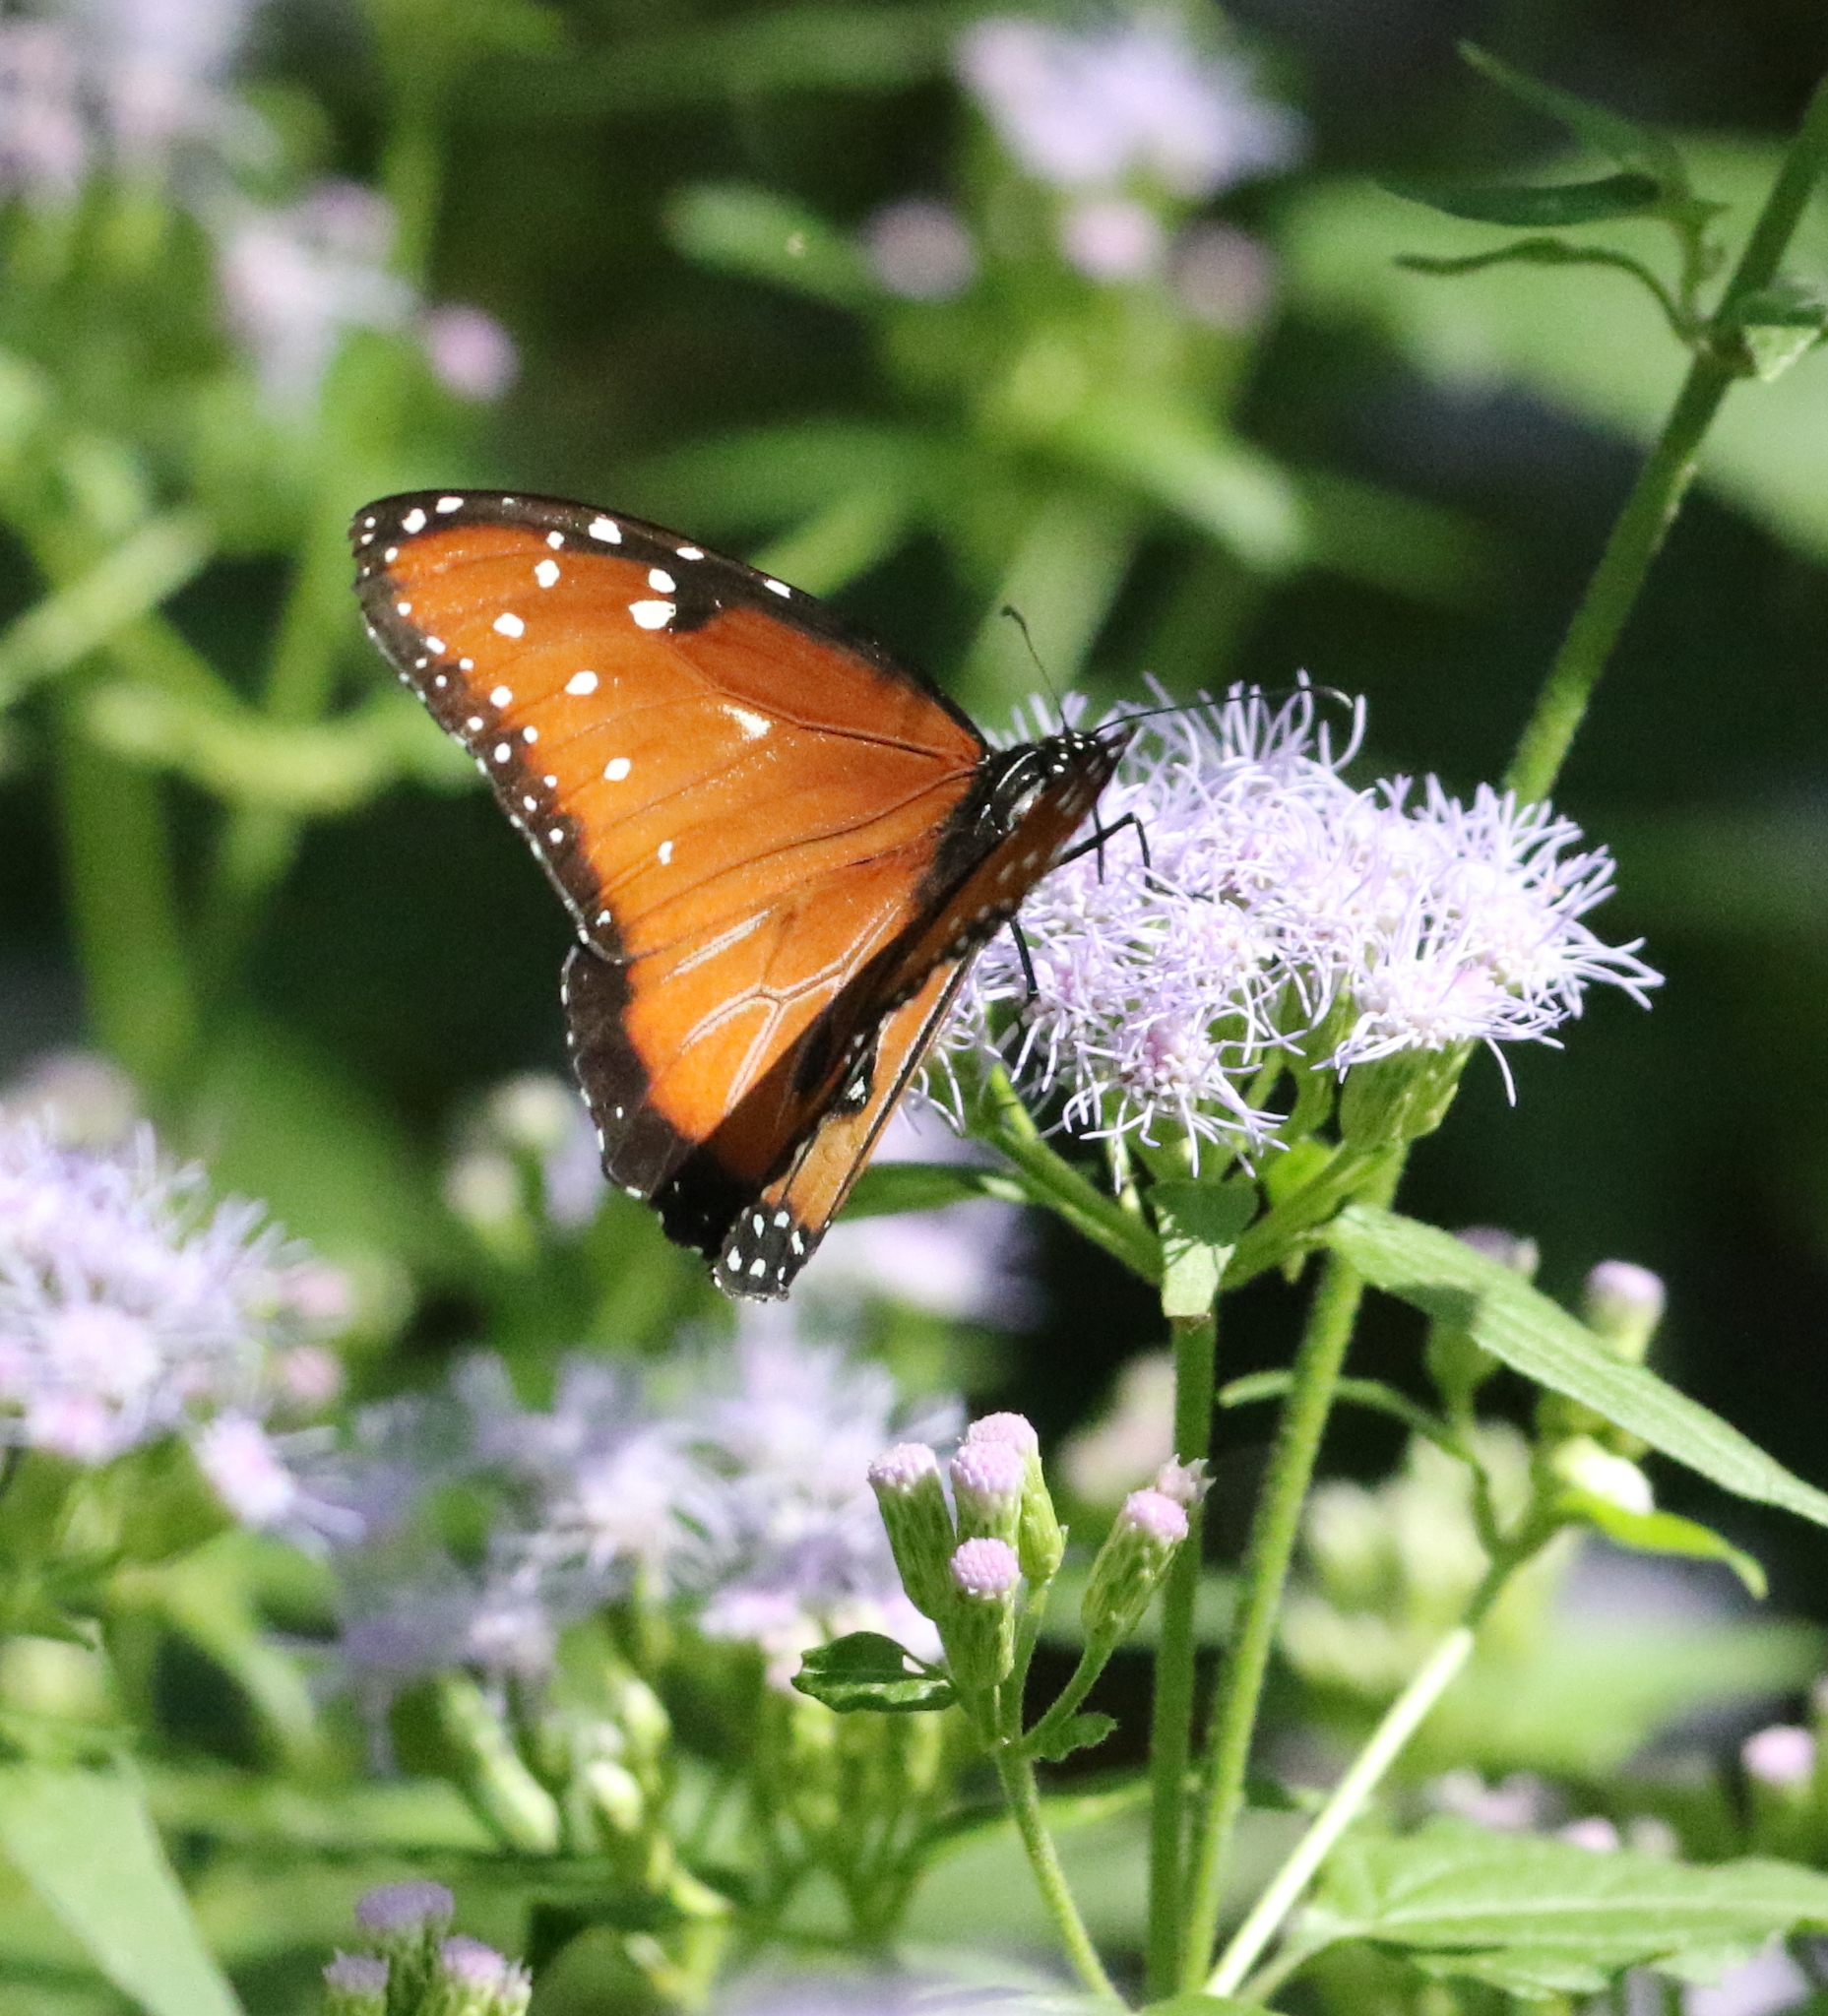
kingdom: Animalia
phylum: Arthropoda
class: Insecta
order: Lepidoptera
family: Nymphalidae
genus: Danaus
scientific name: Danaus gilippus
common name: Queen
